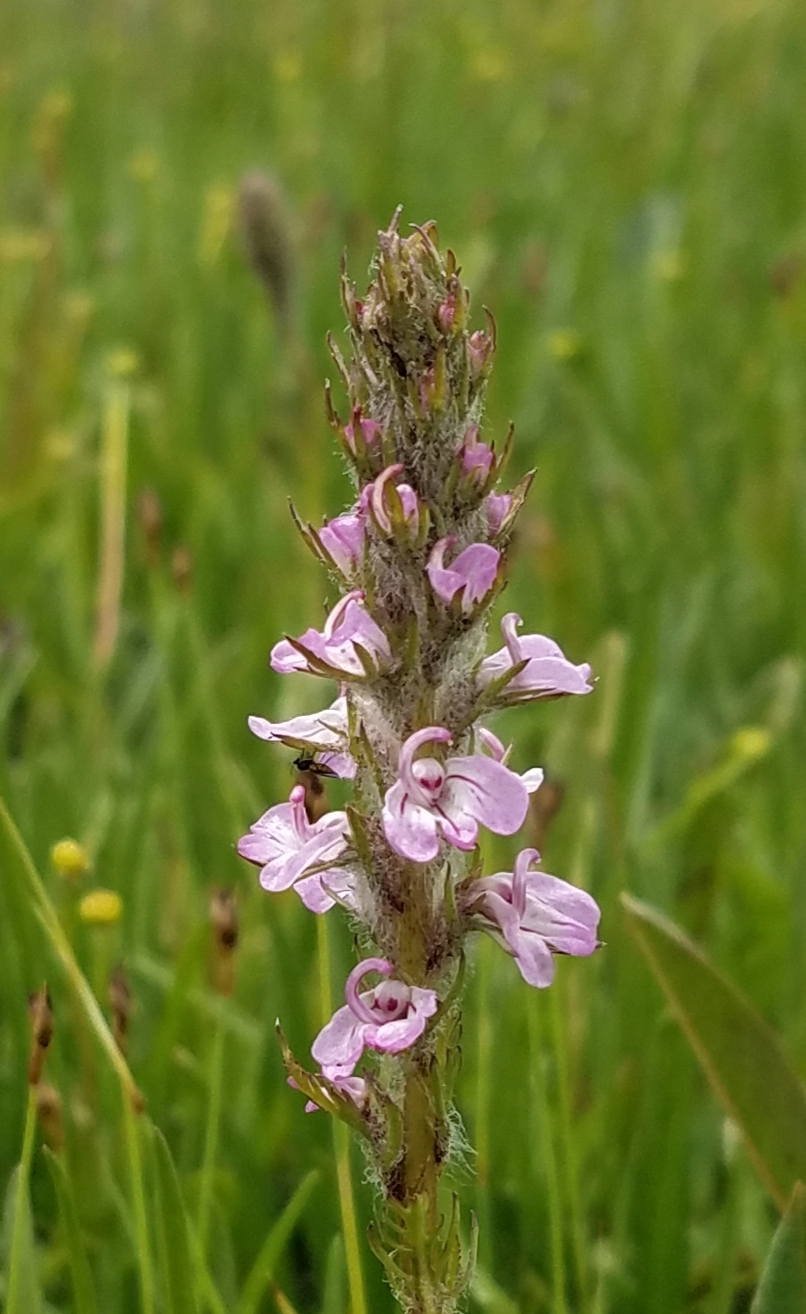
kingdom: Plantae
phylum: Tracheophyta
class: Magnoliopsida
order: Lamiales
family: Orobanchaceae
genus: Pedicularis
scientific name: Pedicularis attollens
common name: Slender pedicularis
